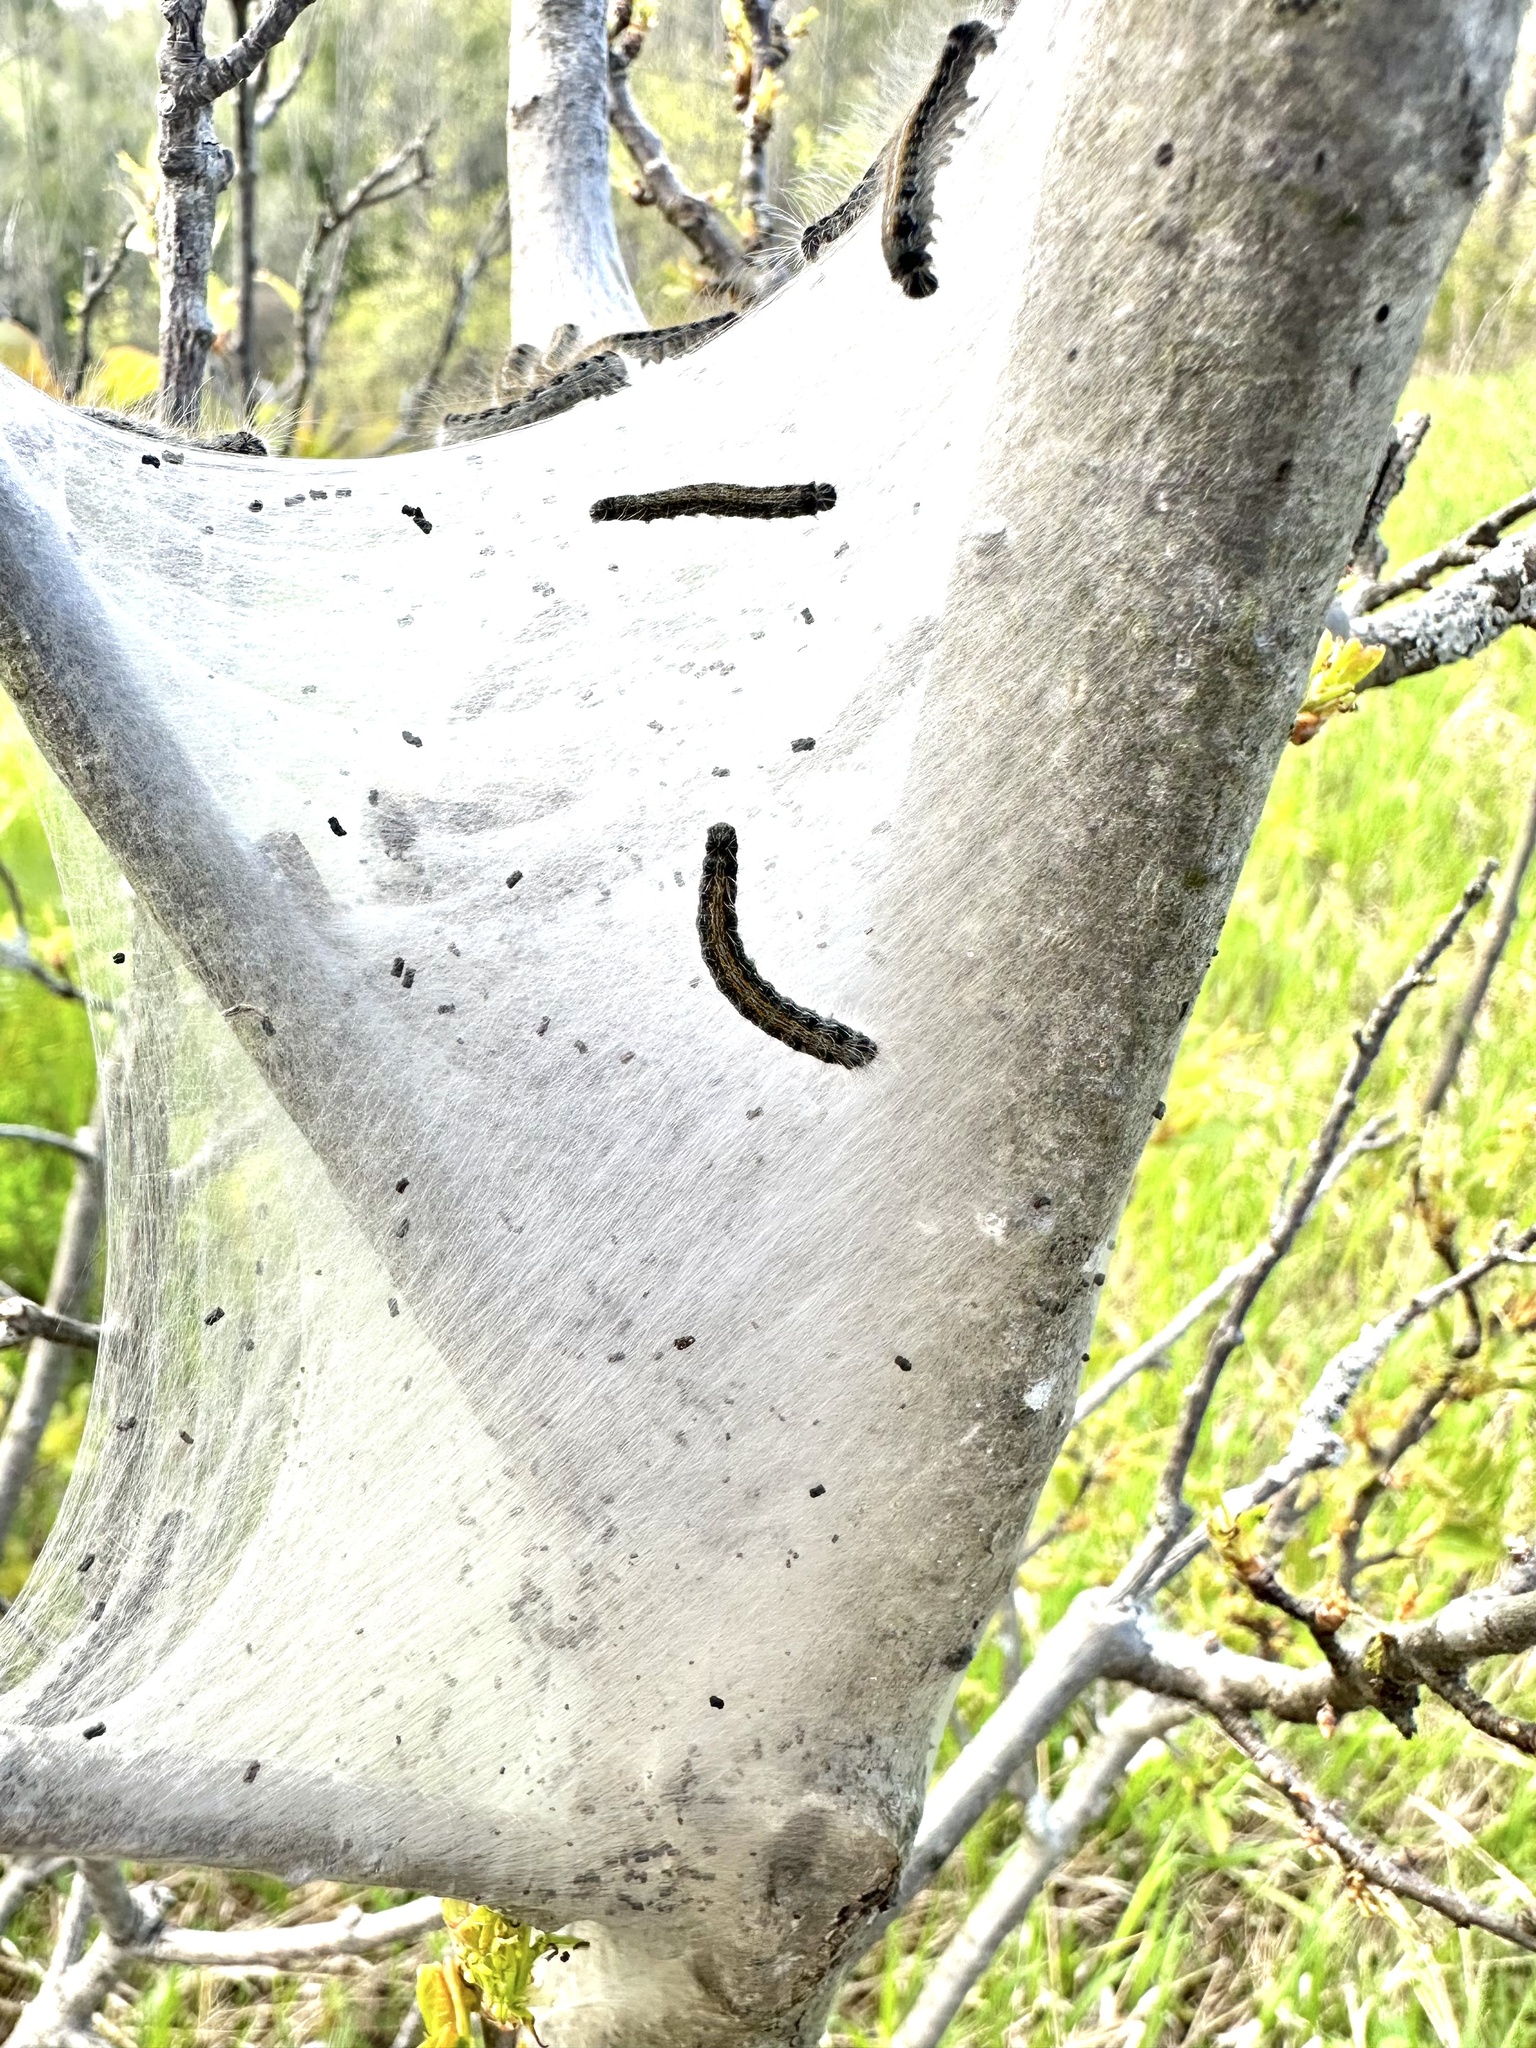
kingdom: Animalia
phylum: Arthropoda
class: Insecta
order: Lepidoptera
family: Lasiocampidae
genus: Malacosoma
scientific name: Malacosoma americana
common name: Eastern tent caterpillar moth
